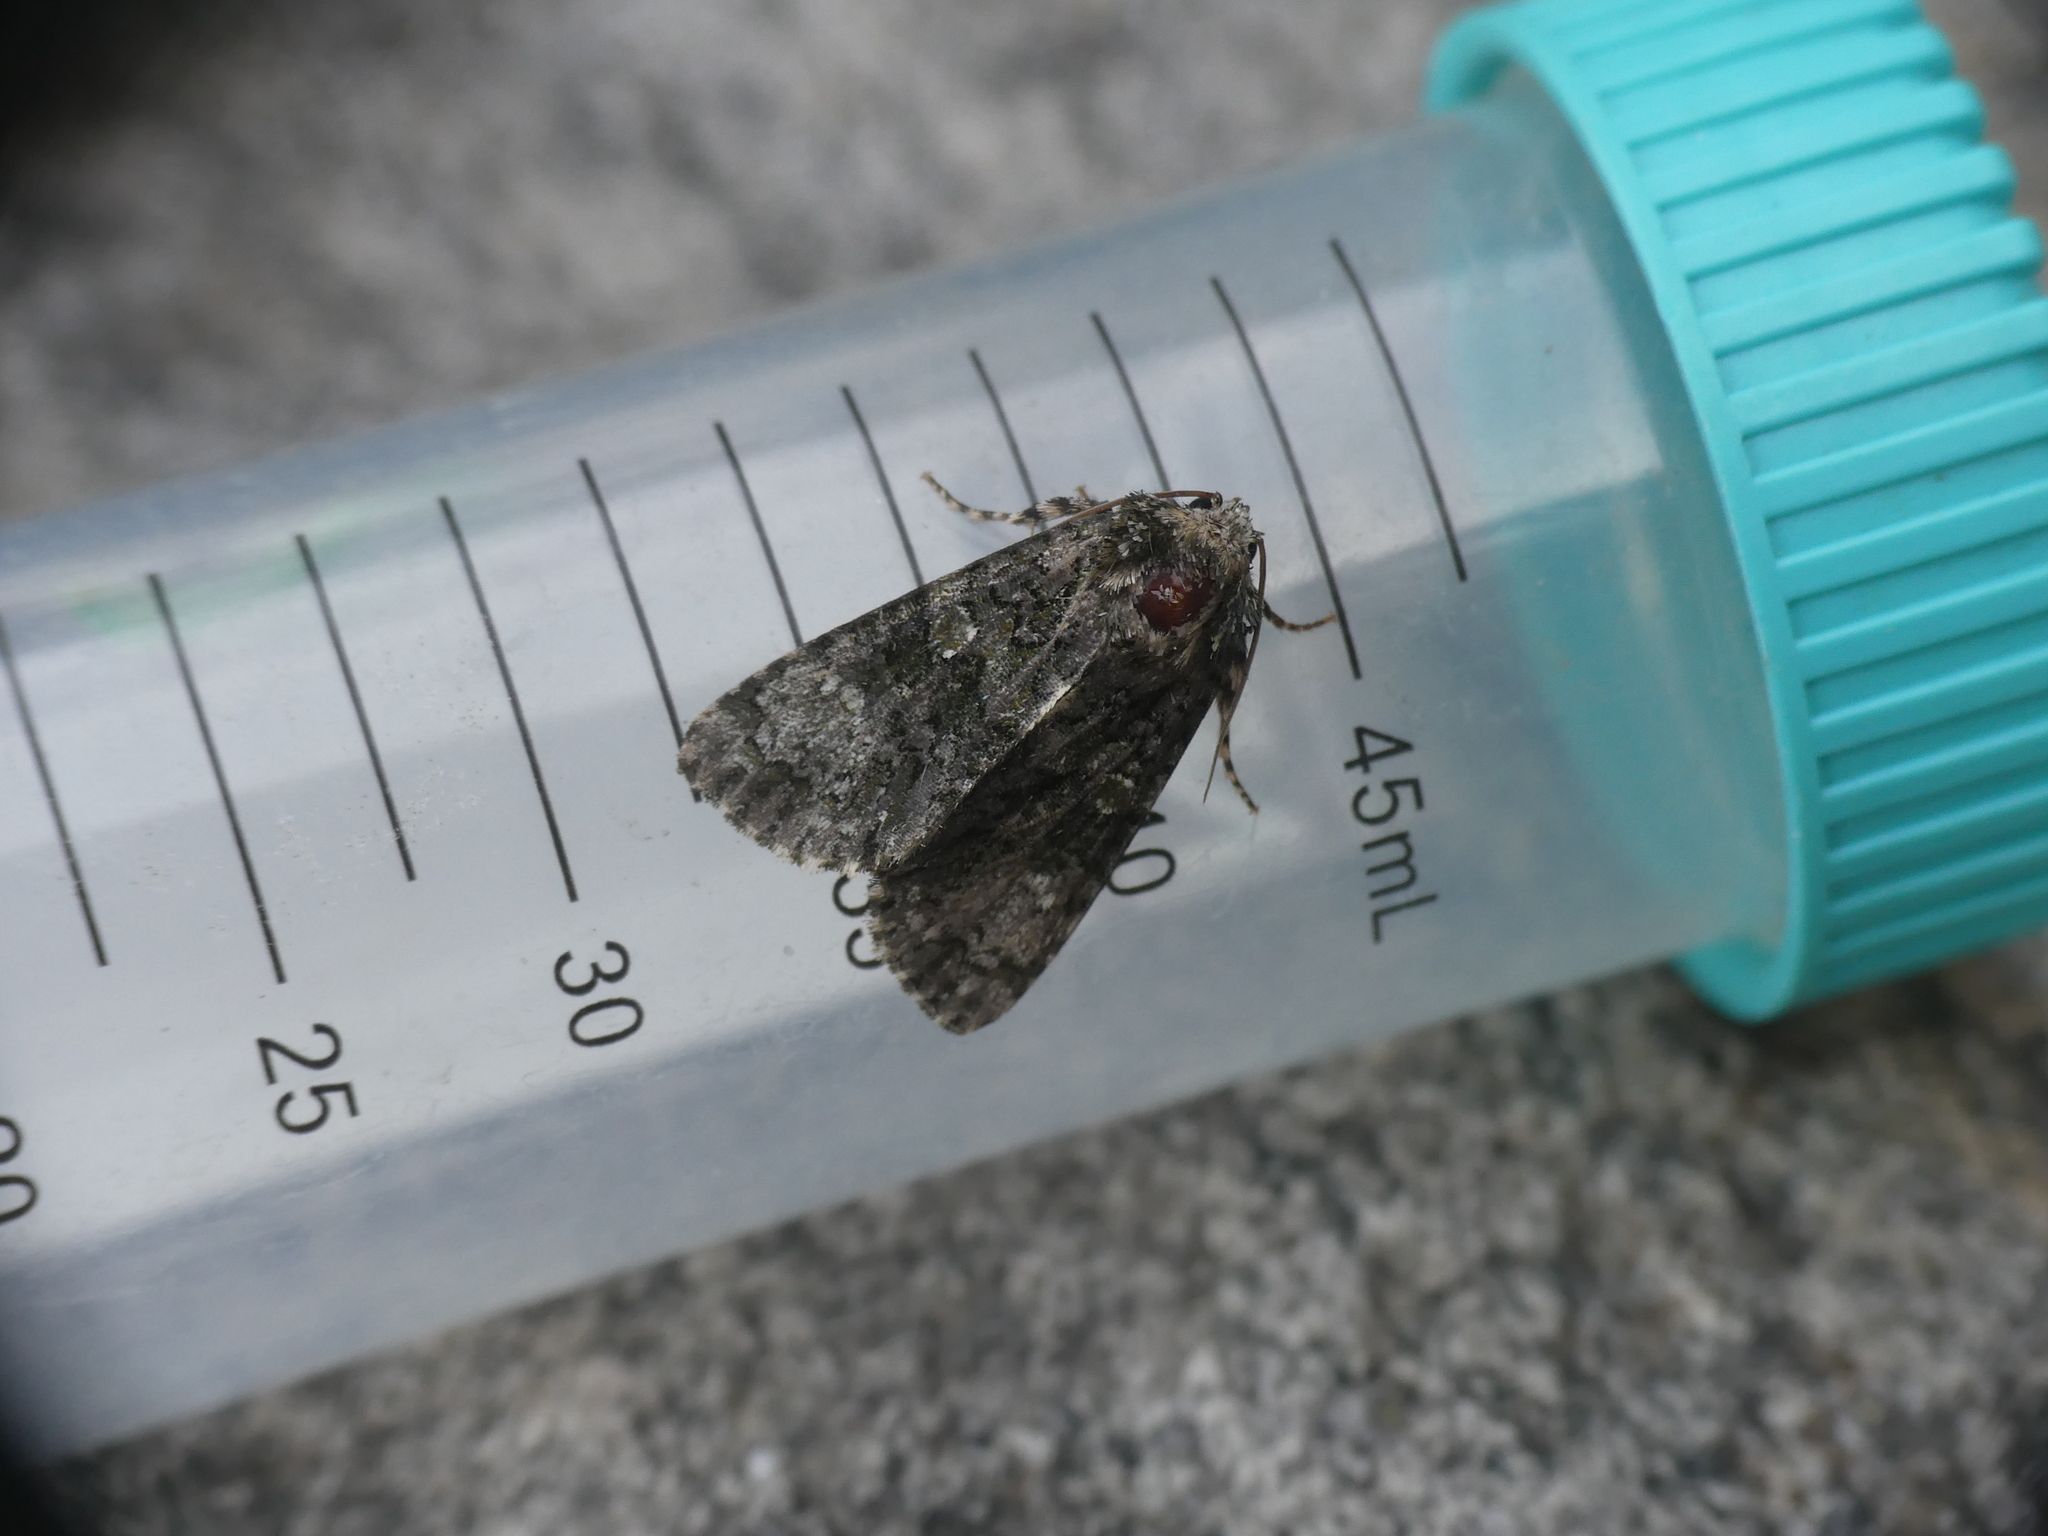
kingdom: Animalia
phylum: Arthropoda
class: Insecta
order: Lepidoptera
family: Noctuidae
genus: Craniophora
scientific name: Craniophora ligustri
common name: Coronet
